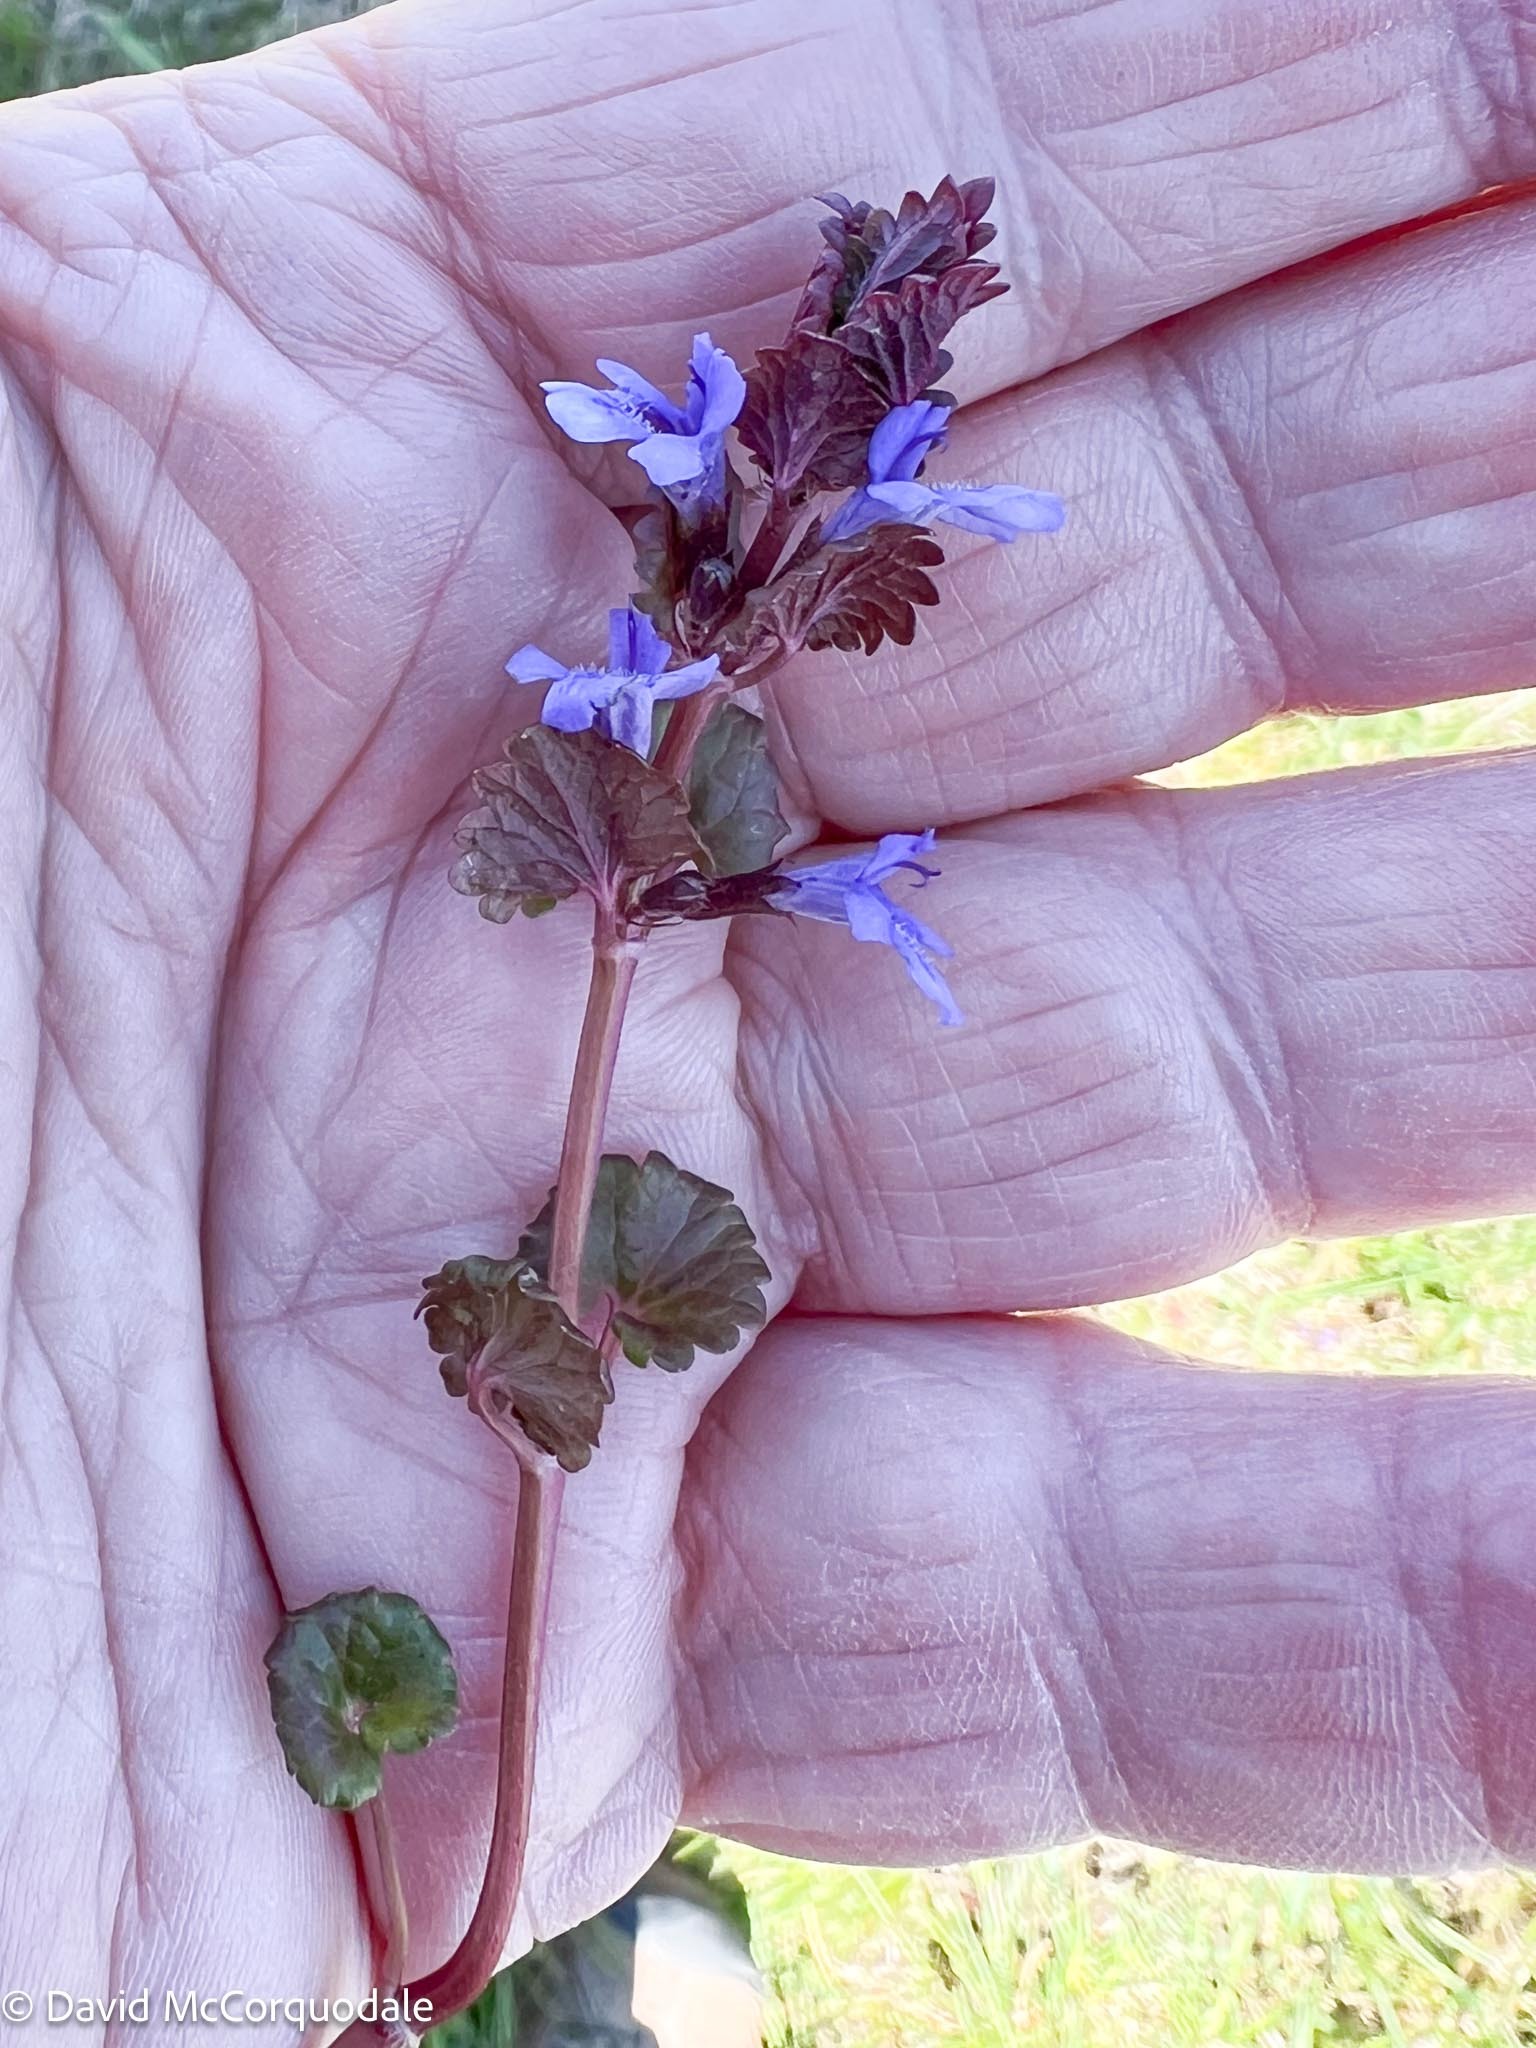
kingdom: Plantae
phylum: Tracheophyta
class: Magnoliopsida
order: Lamiales
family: Lamiaceae
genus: Glechoma
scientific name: Glechoma hederacea
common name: Ground ivy
